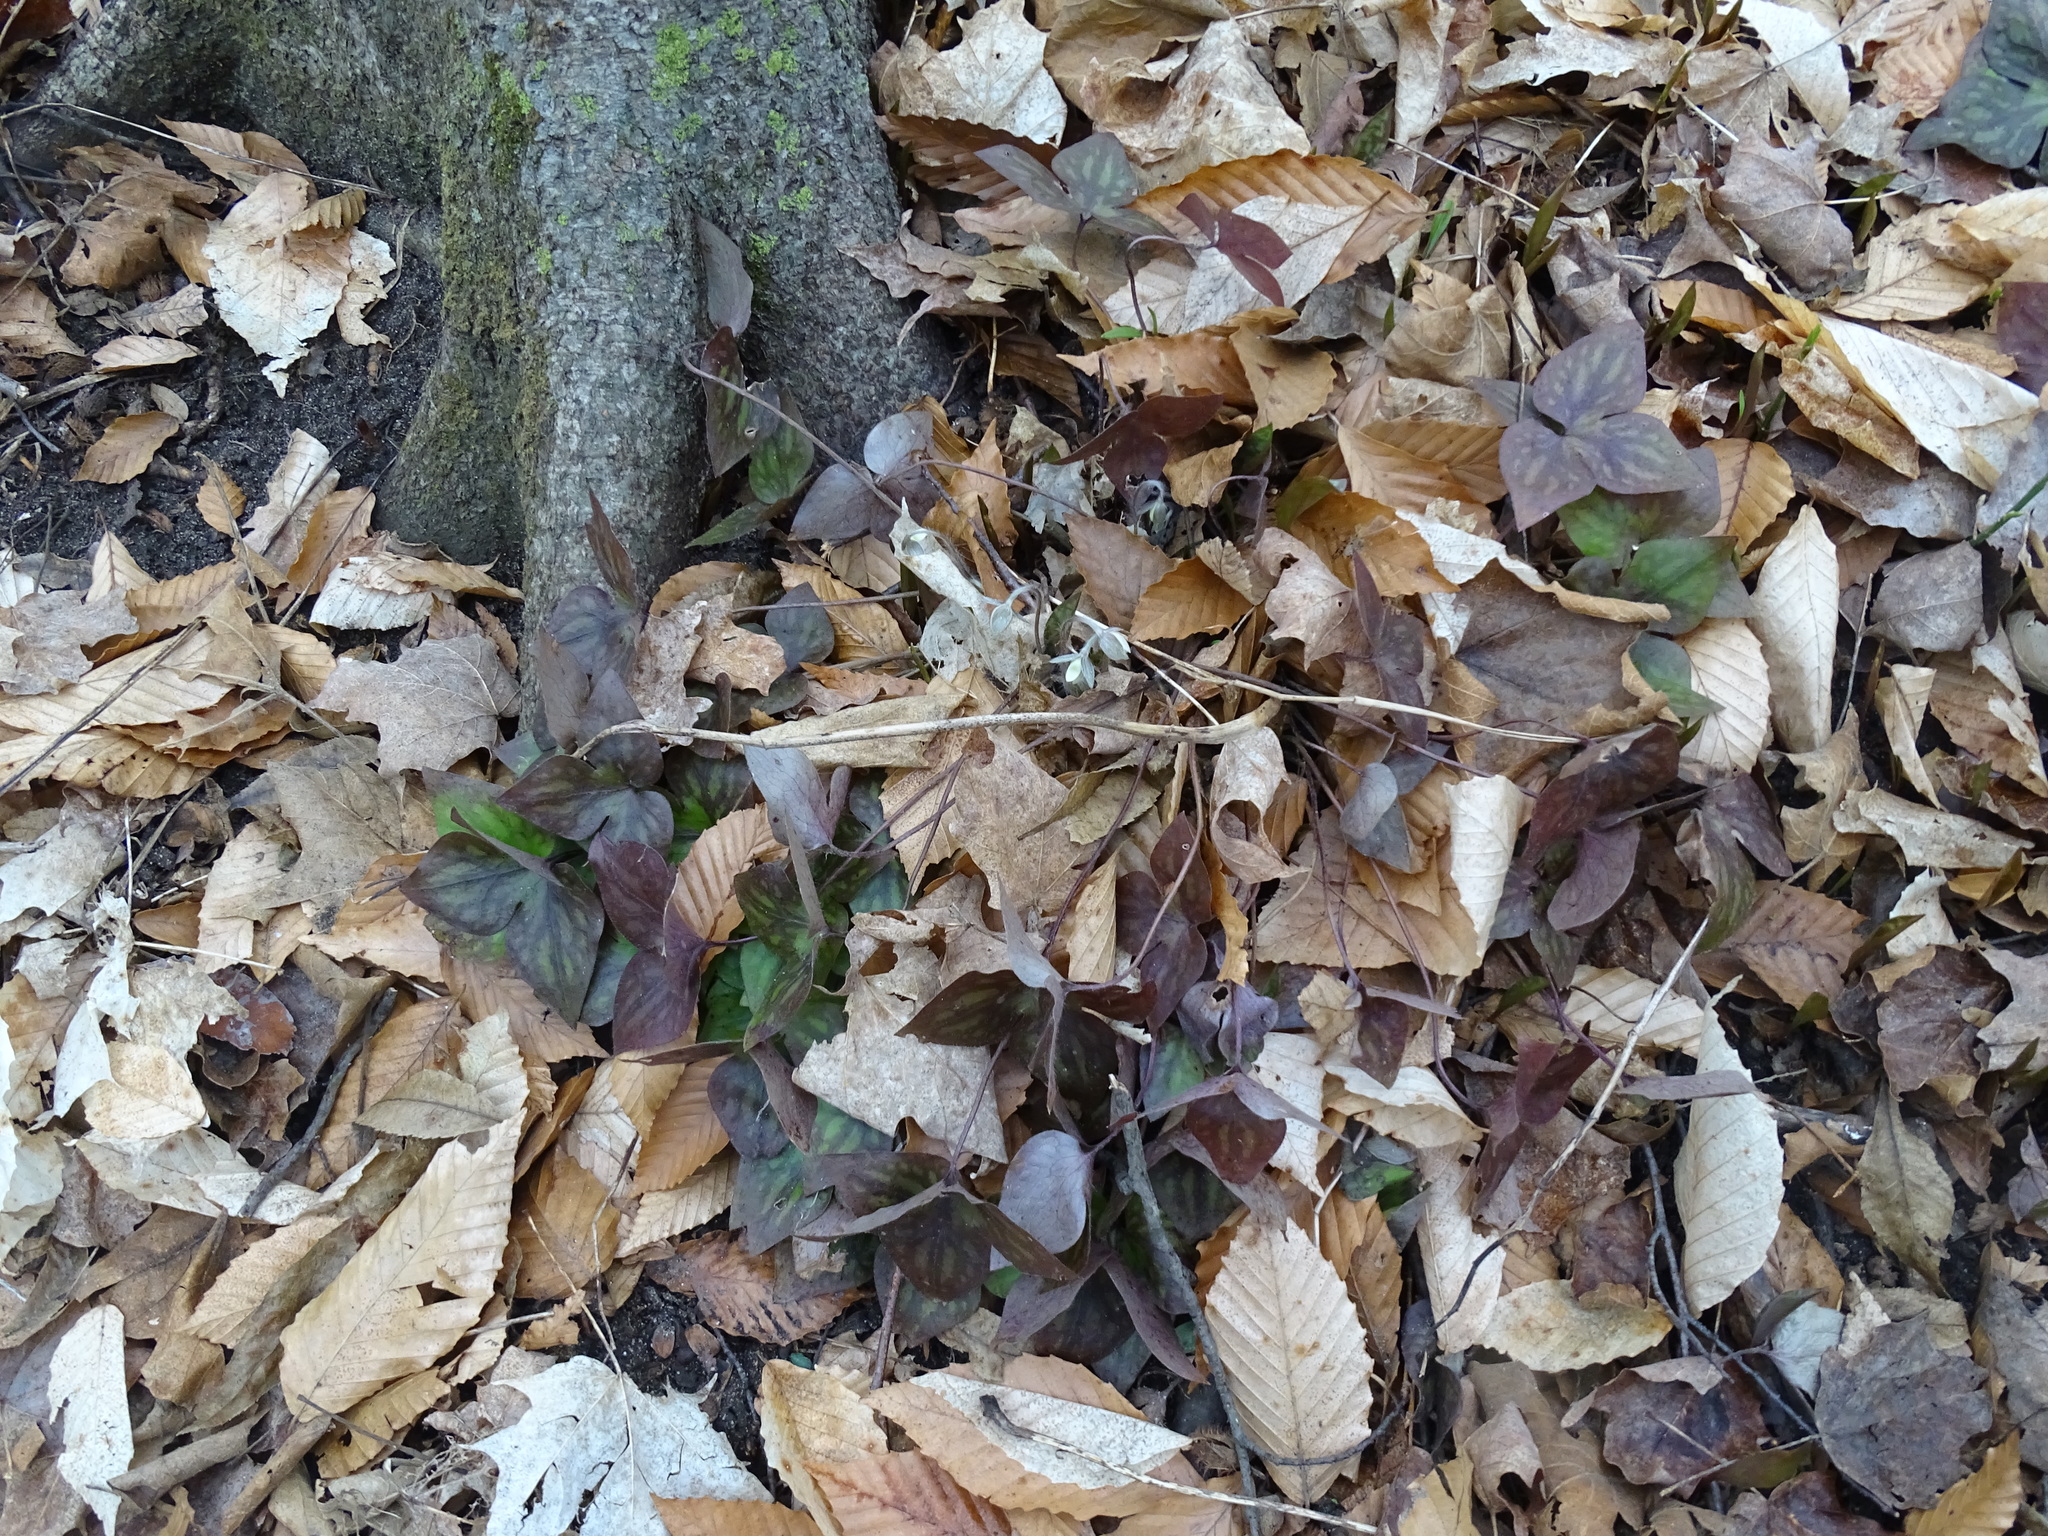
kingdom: Plantae
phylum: Tracheophyta
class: Magnoliopsida
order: Ranunculales
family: Ranunculaceae
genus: Hepatica
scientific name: Hepatica acutiloba
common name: Sharp-lobed hepatica
